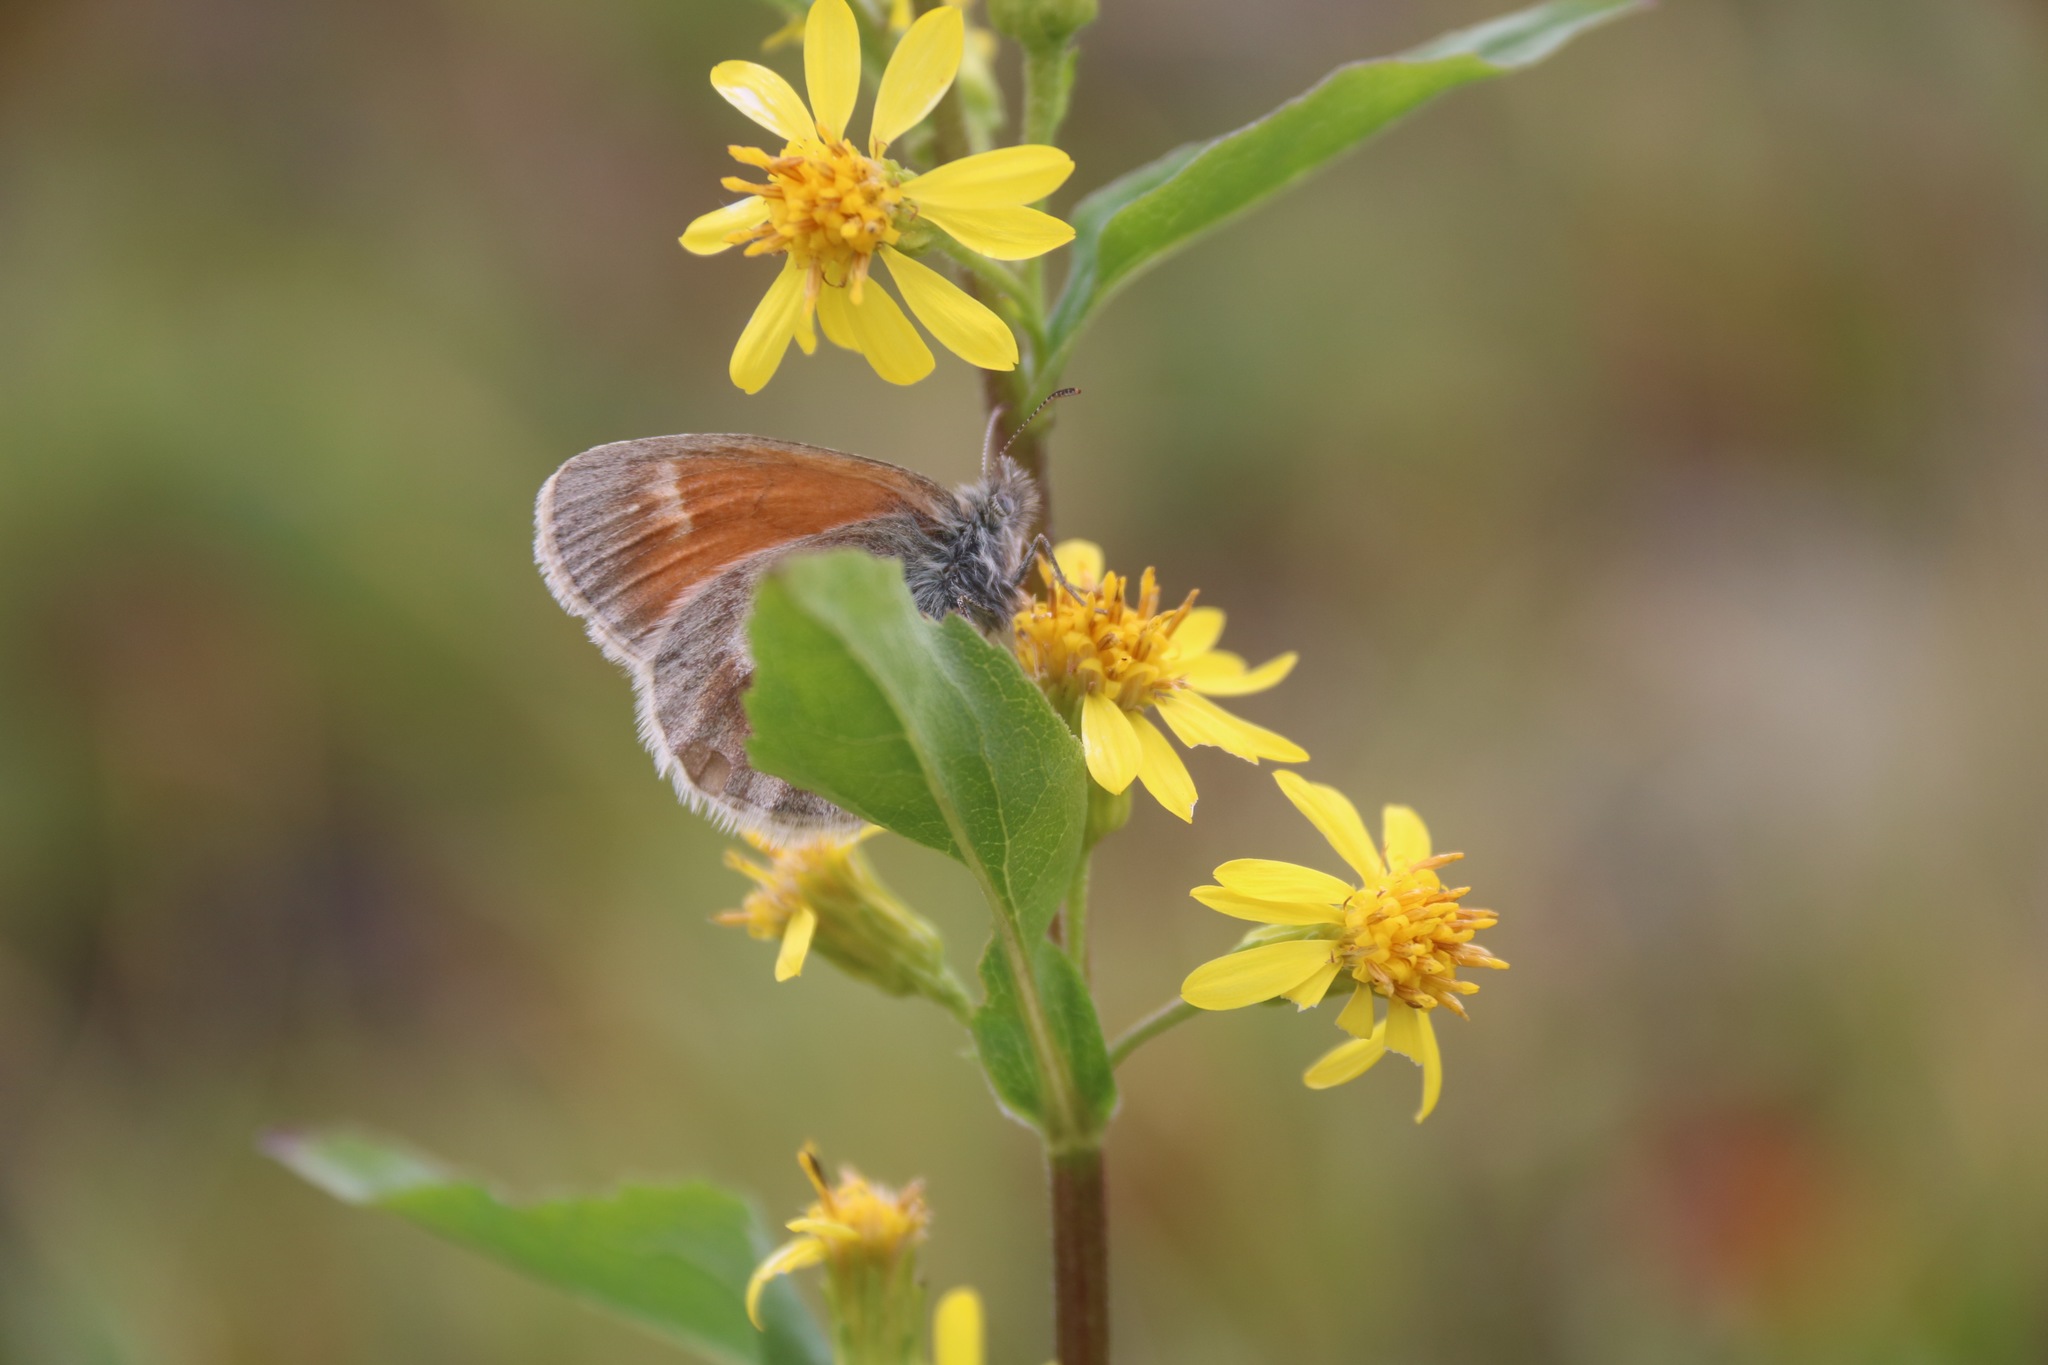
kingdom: Animalia
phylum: Arthropoda
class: Insecta
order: Lepidoptera
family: Nymphalidae
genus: Coenonympha
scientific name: Coenonympha tullia
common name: Large heath
